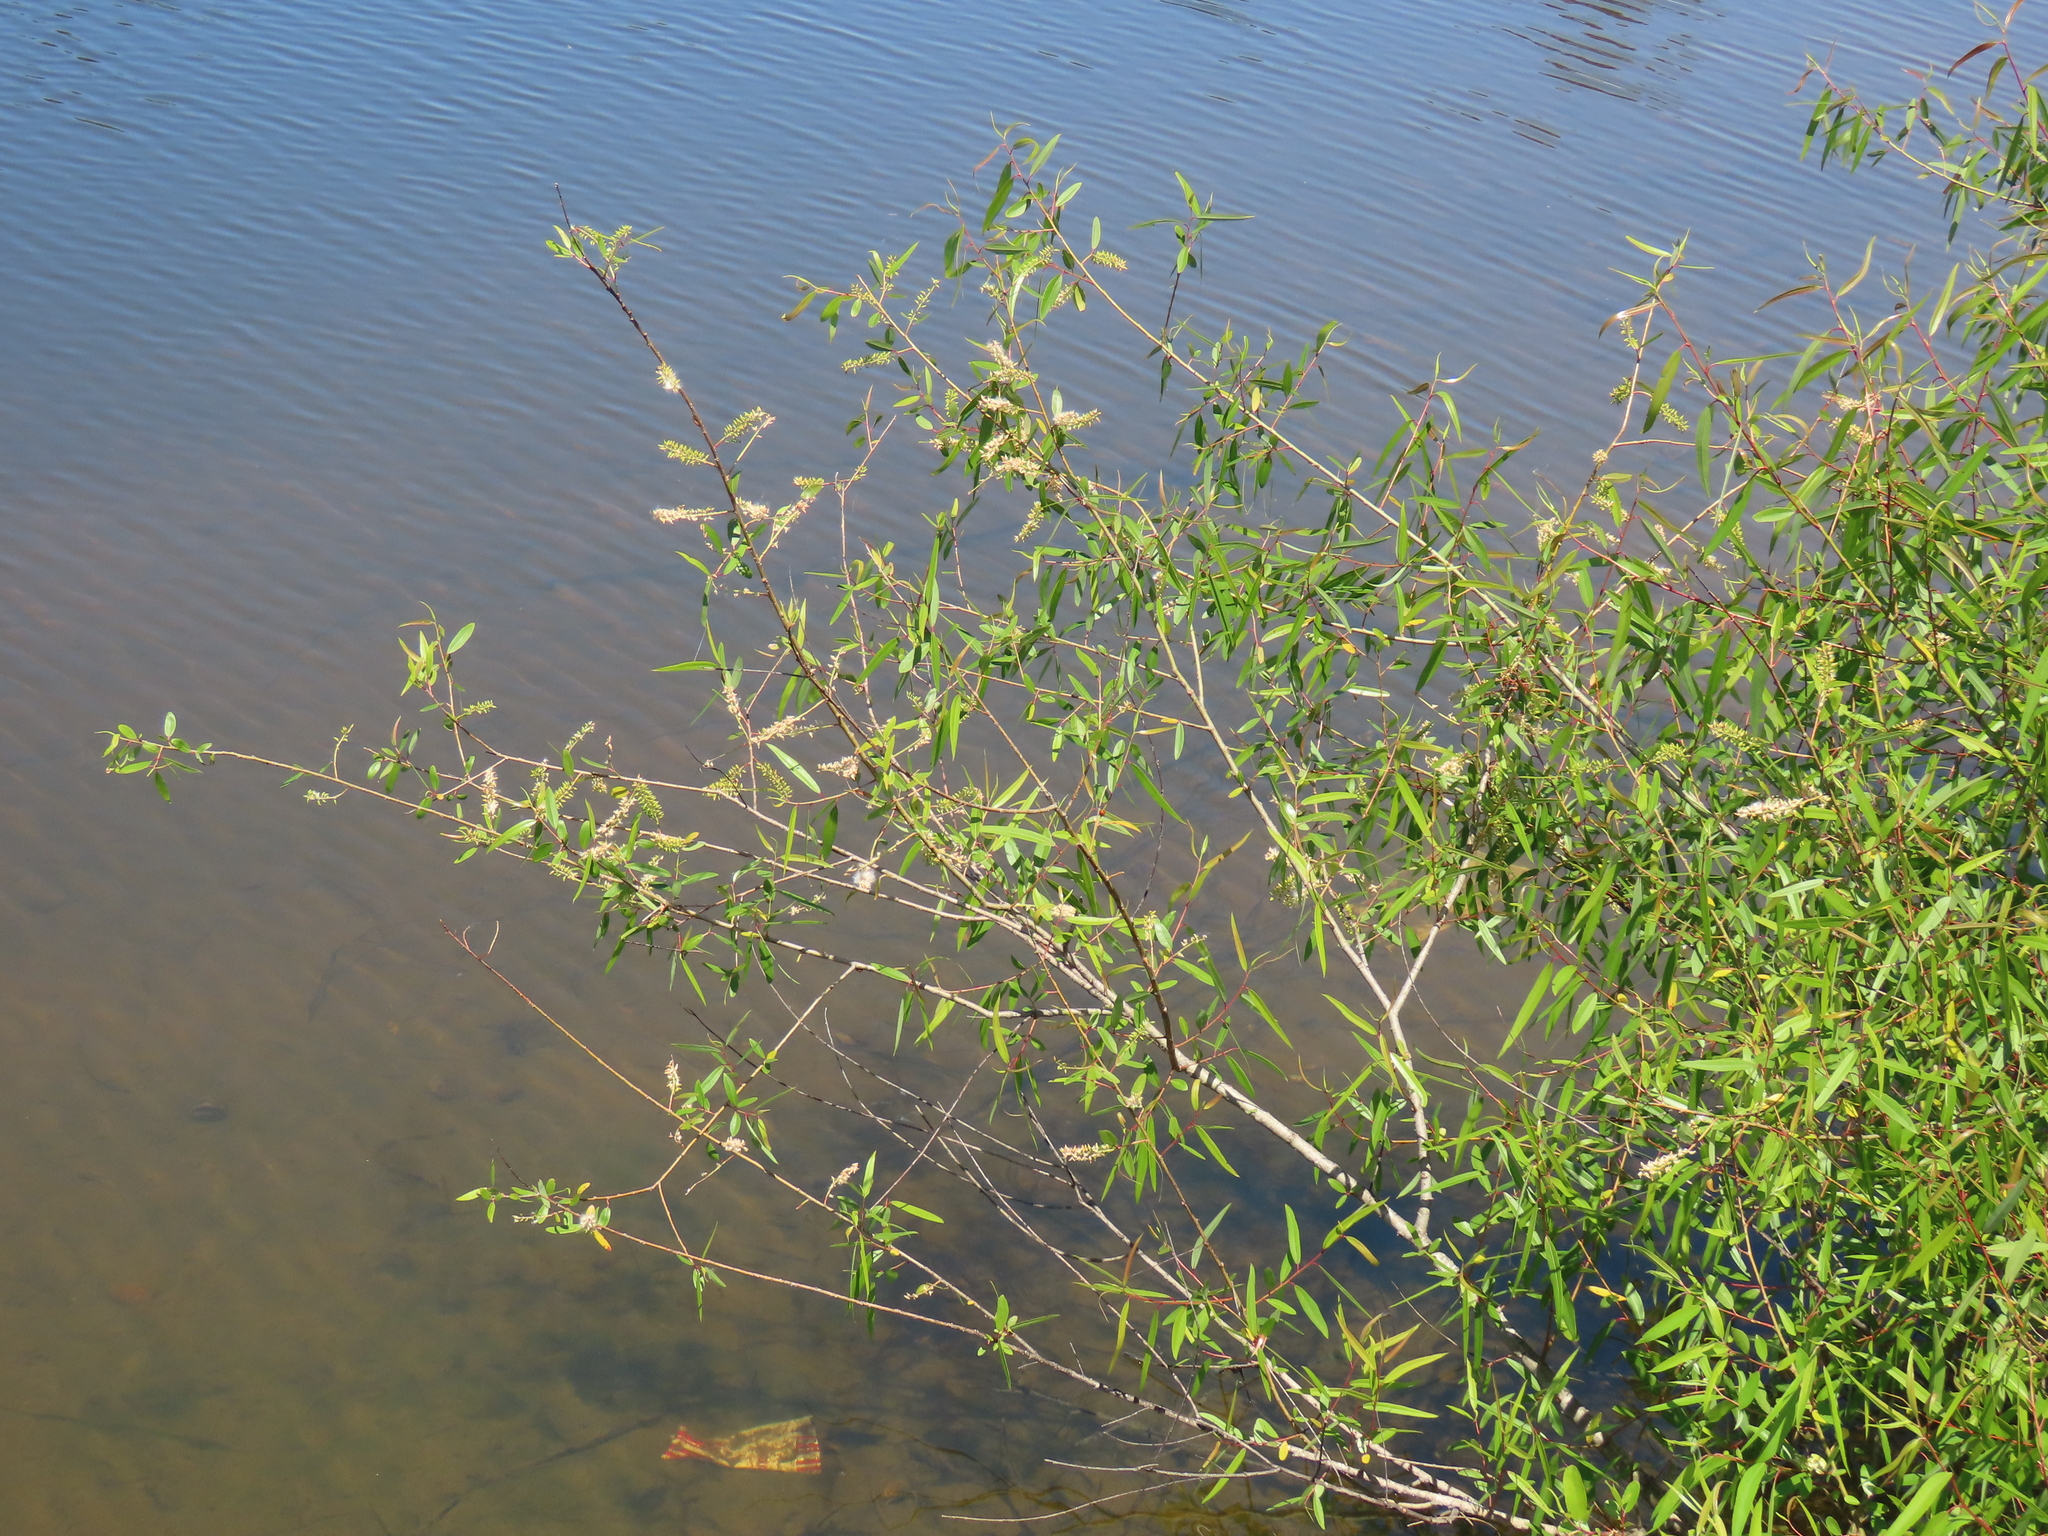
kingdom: Plantae
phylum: Tracheophyta
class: Magnoliopsida
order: Malpighiales
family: Salicaceae
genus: Salix
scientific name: Salix caroliniana
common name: Carolina willow
